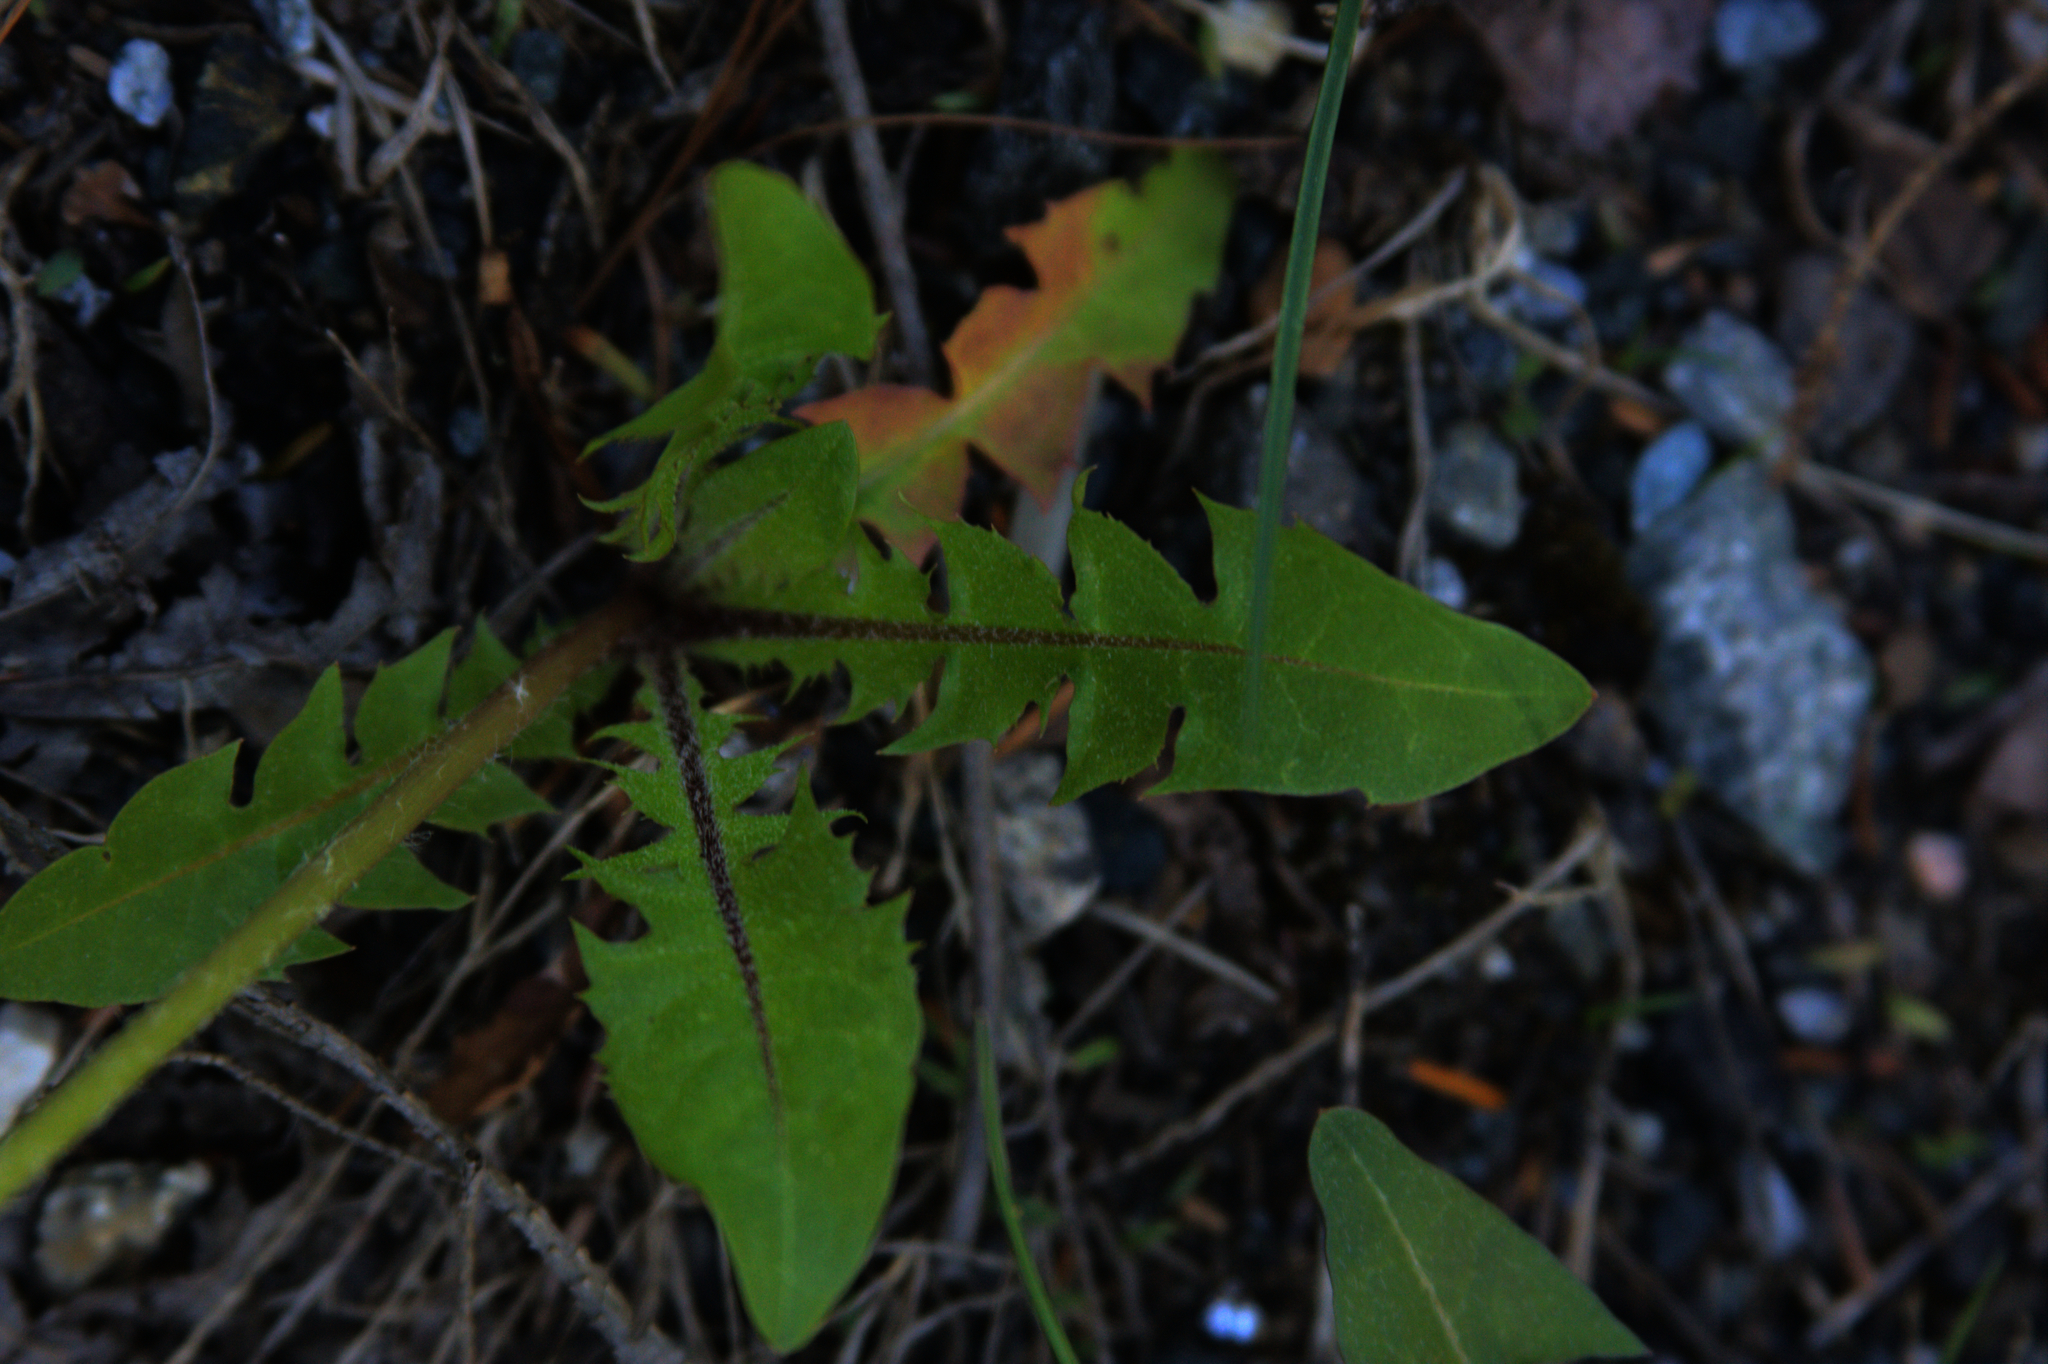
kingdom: Plantae
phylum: Tracheophyta
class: Magnoliopsida
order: Asterales
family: Asteraceae
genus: Taraxacum
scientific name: Taraxacum officinale
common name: Common dandelion
